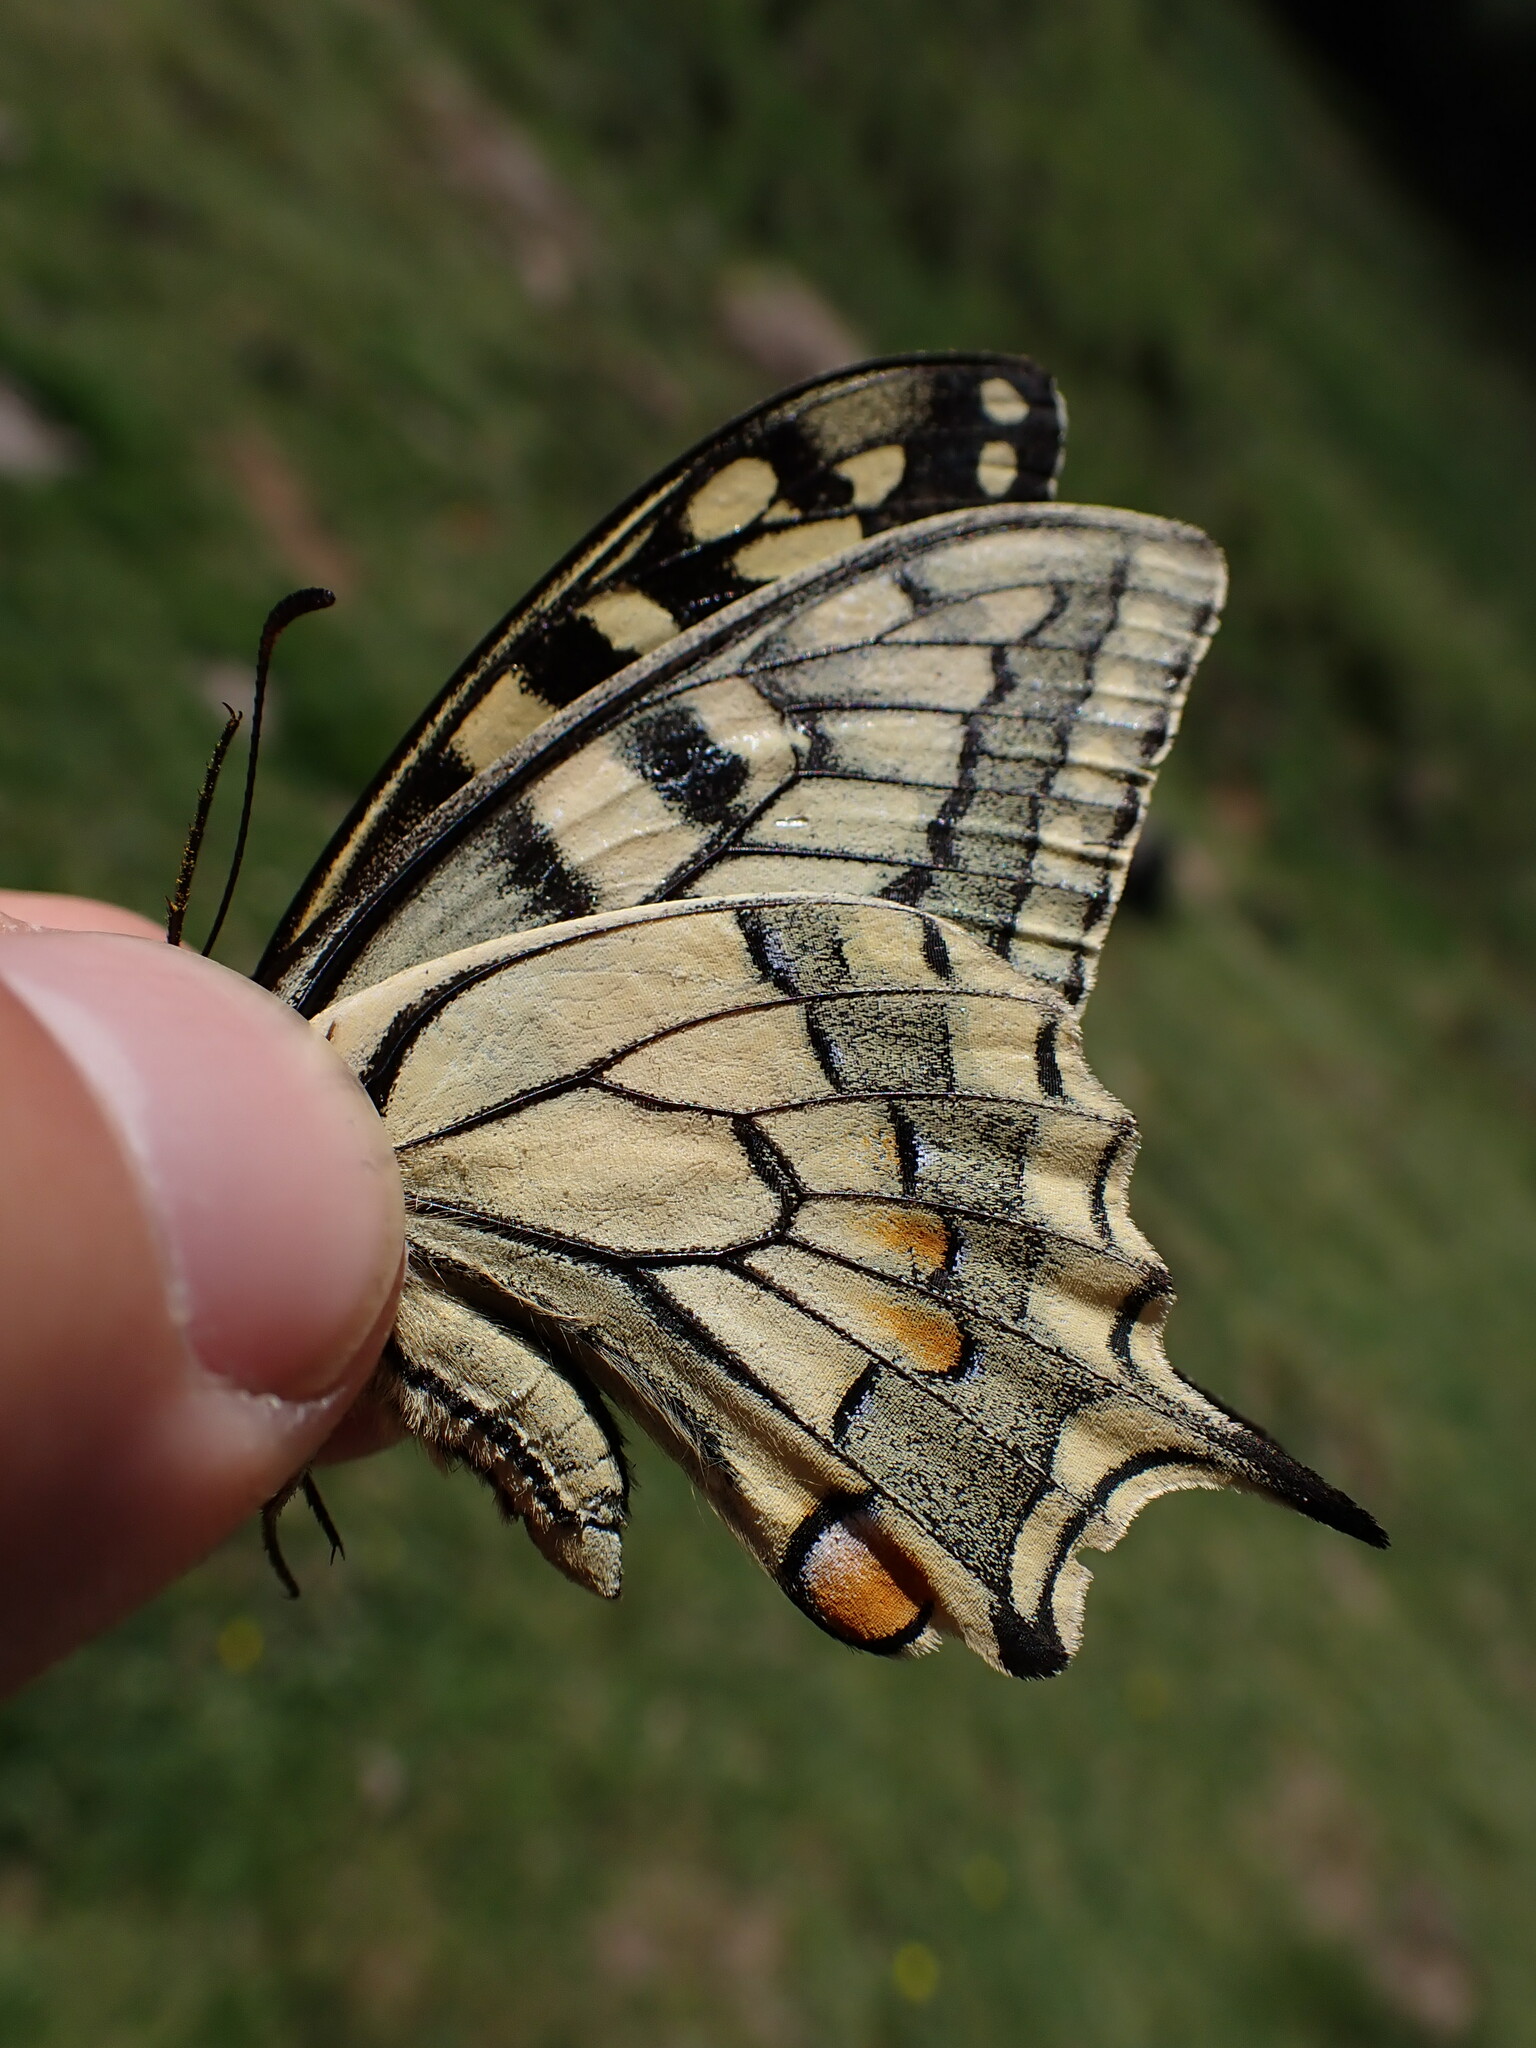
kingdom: Animalia
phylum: Arthropoda
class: Insecta
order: Lepidoptera
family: Papilionidae
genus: Papilio
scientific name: Papilio machaon
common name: Swallowtail
